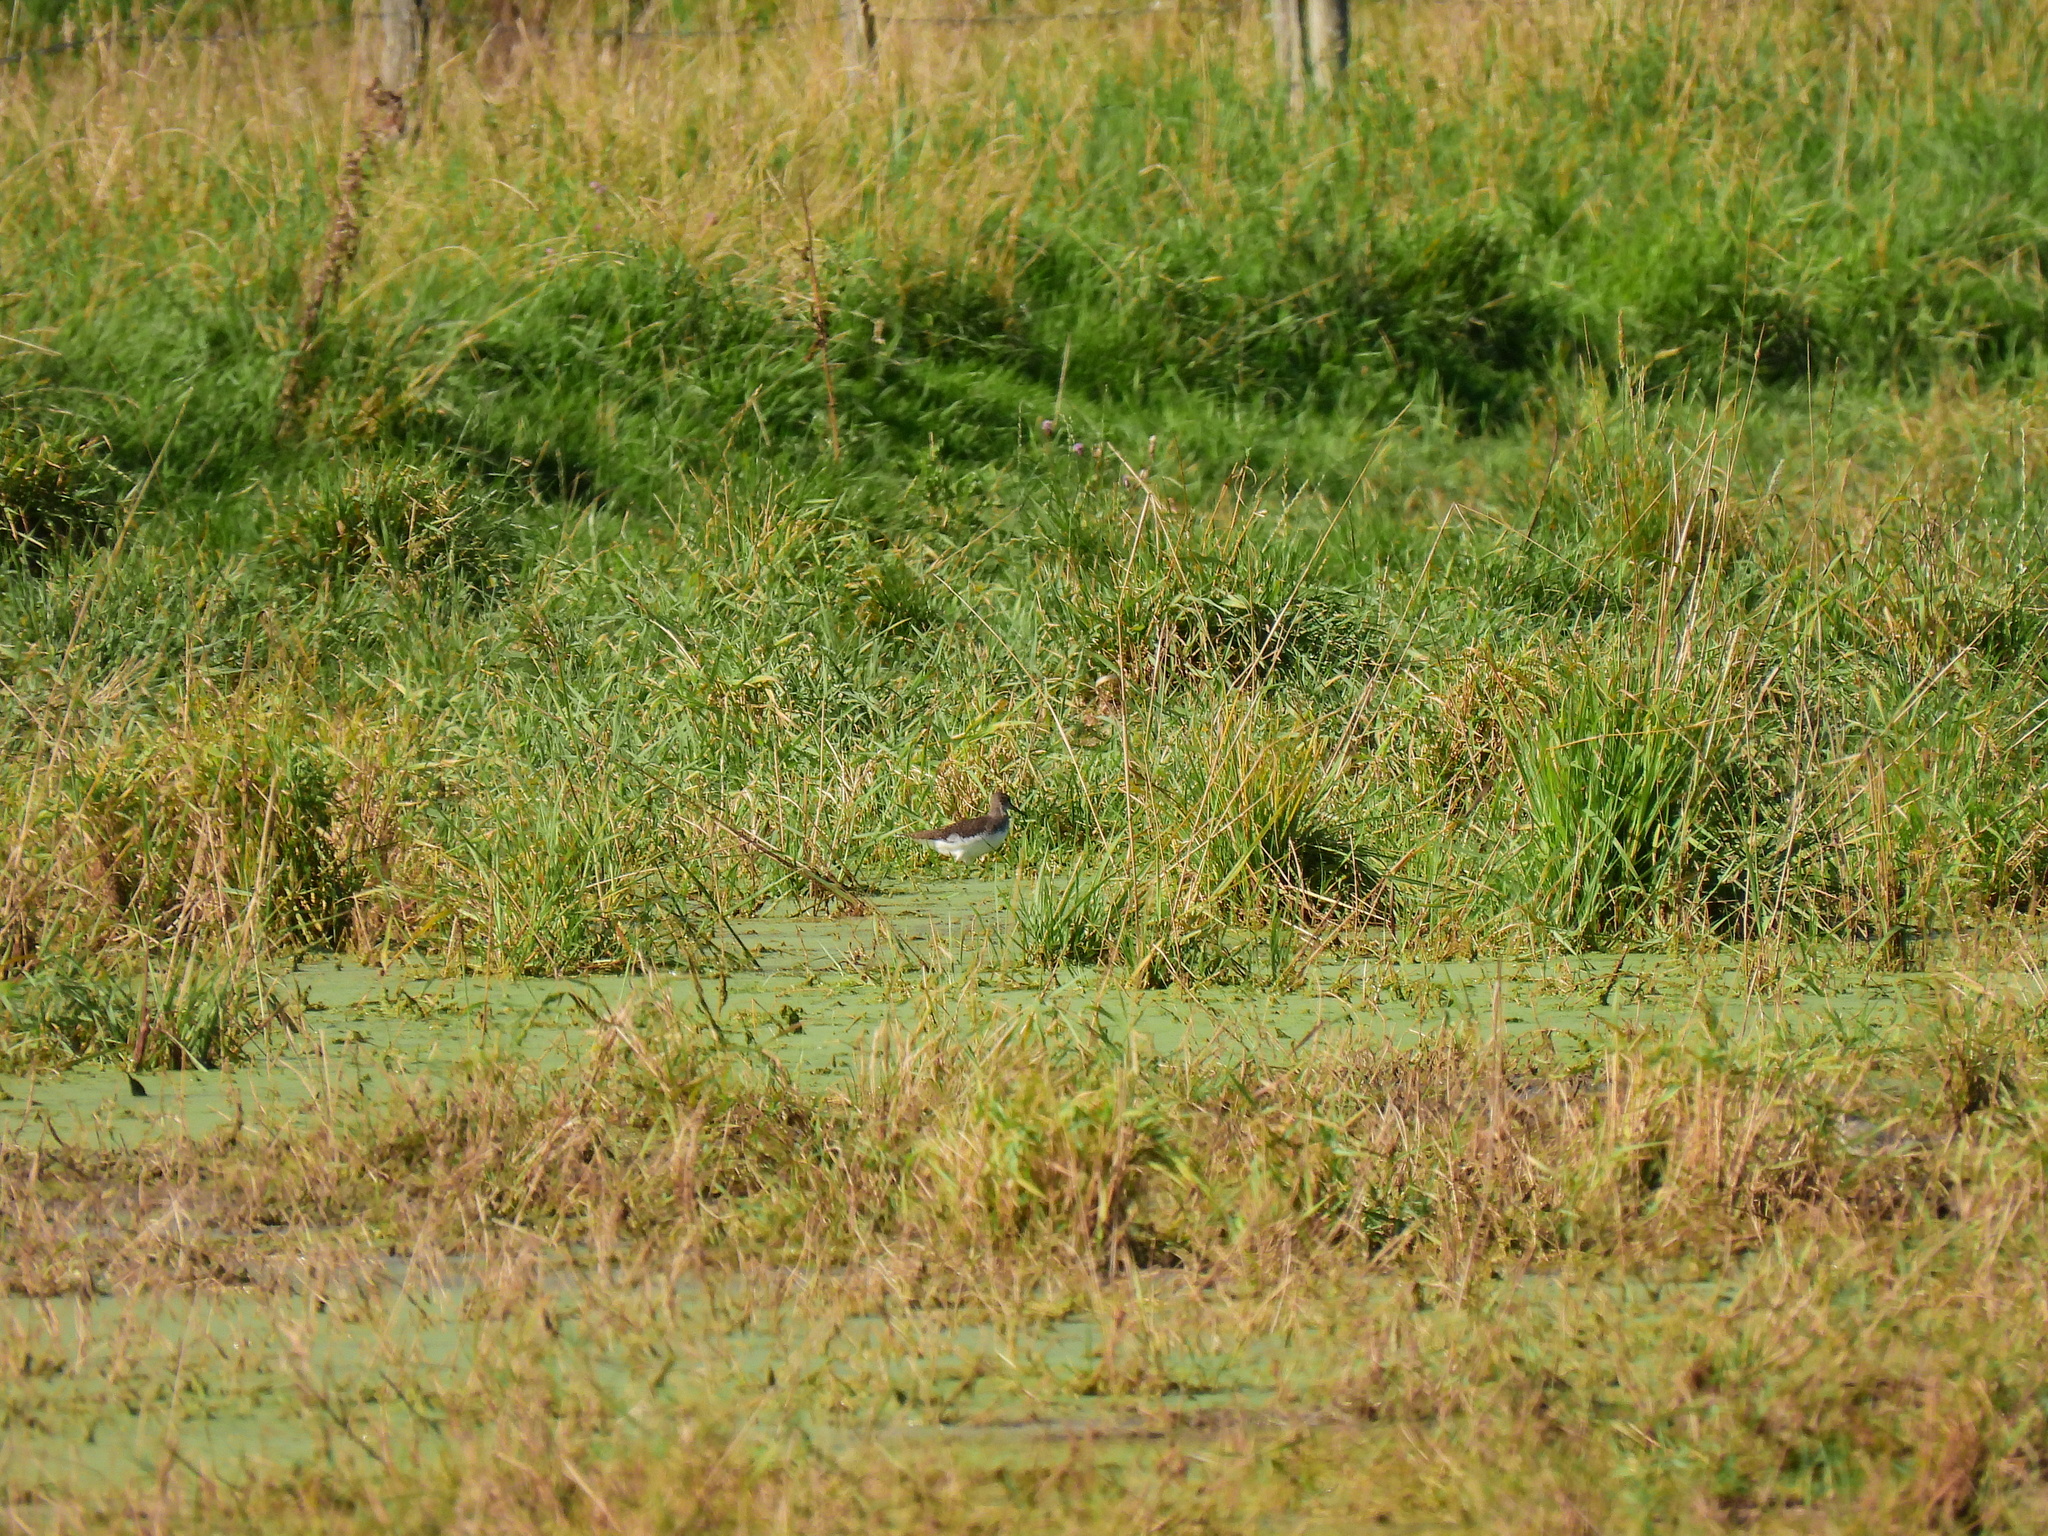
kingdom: Animalia
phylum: Chordata
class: Aves
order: Charadriiformes
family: Scolopacidae
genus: Tringa
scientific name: Tringa ochropus
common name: Green sandpiper
